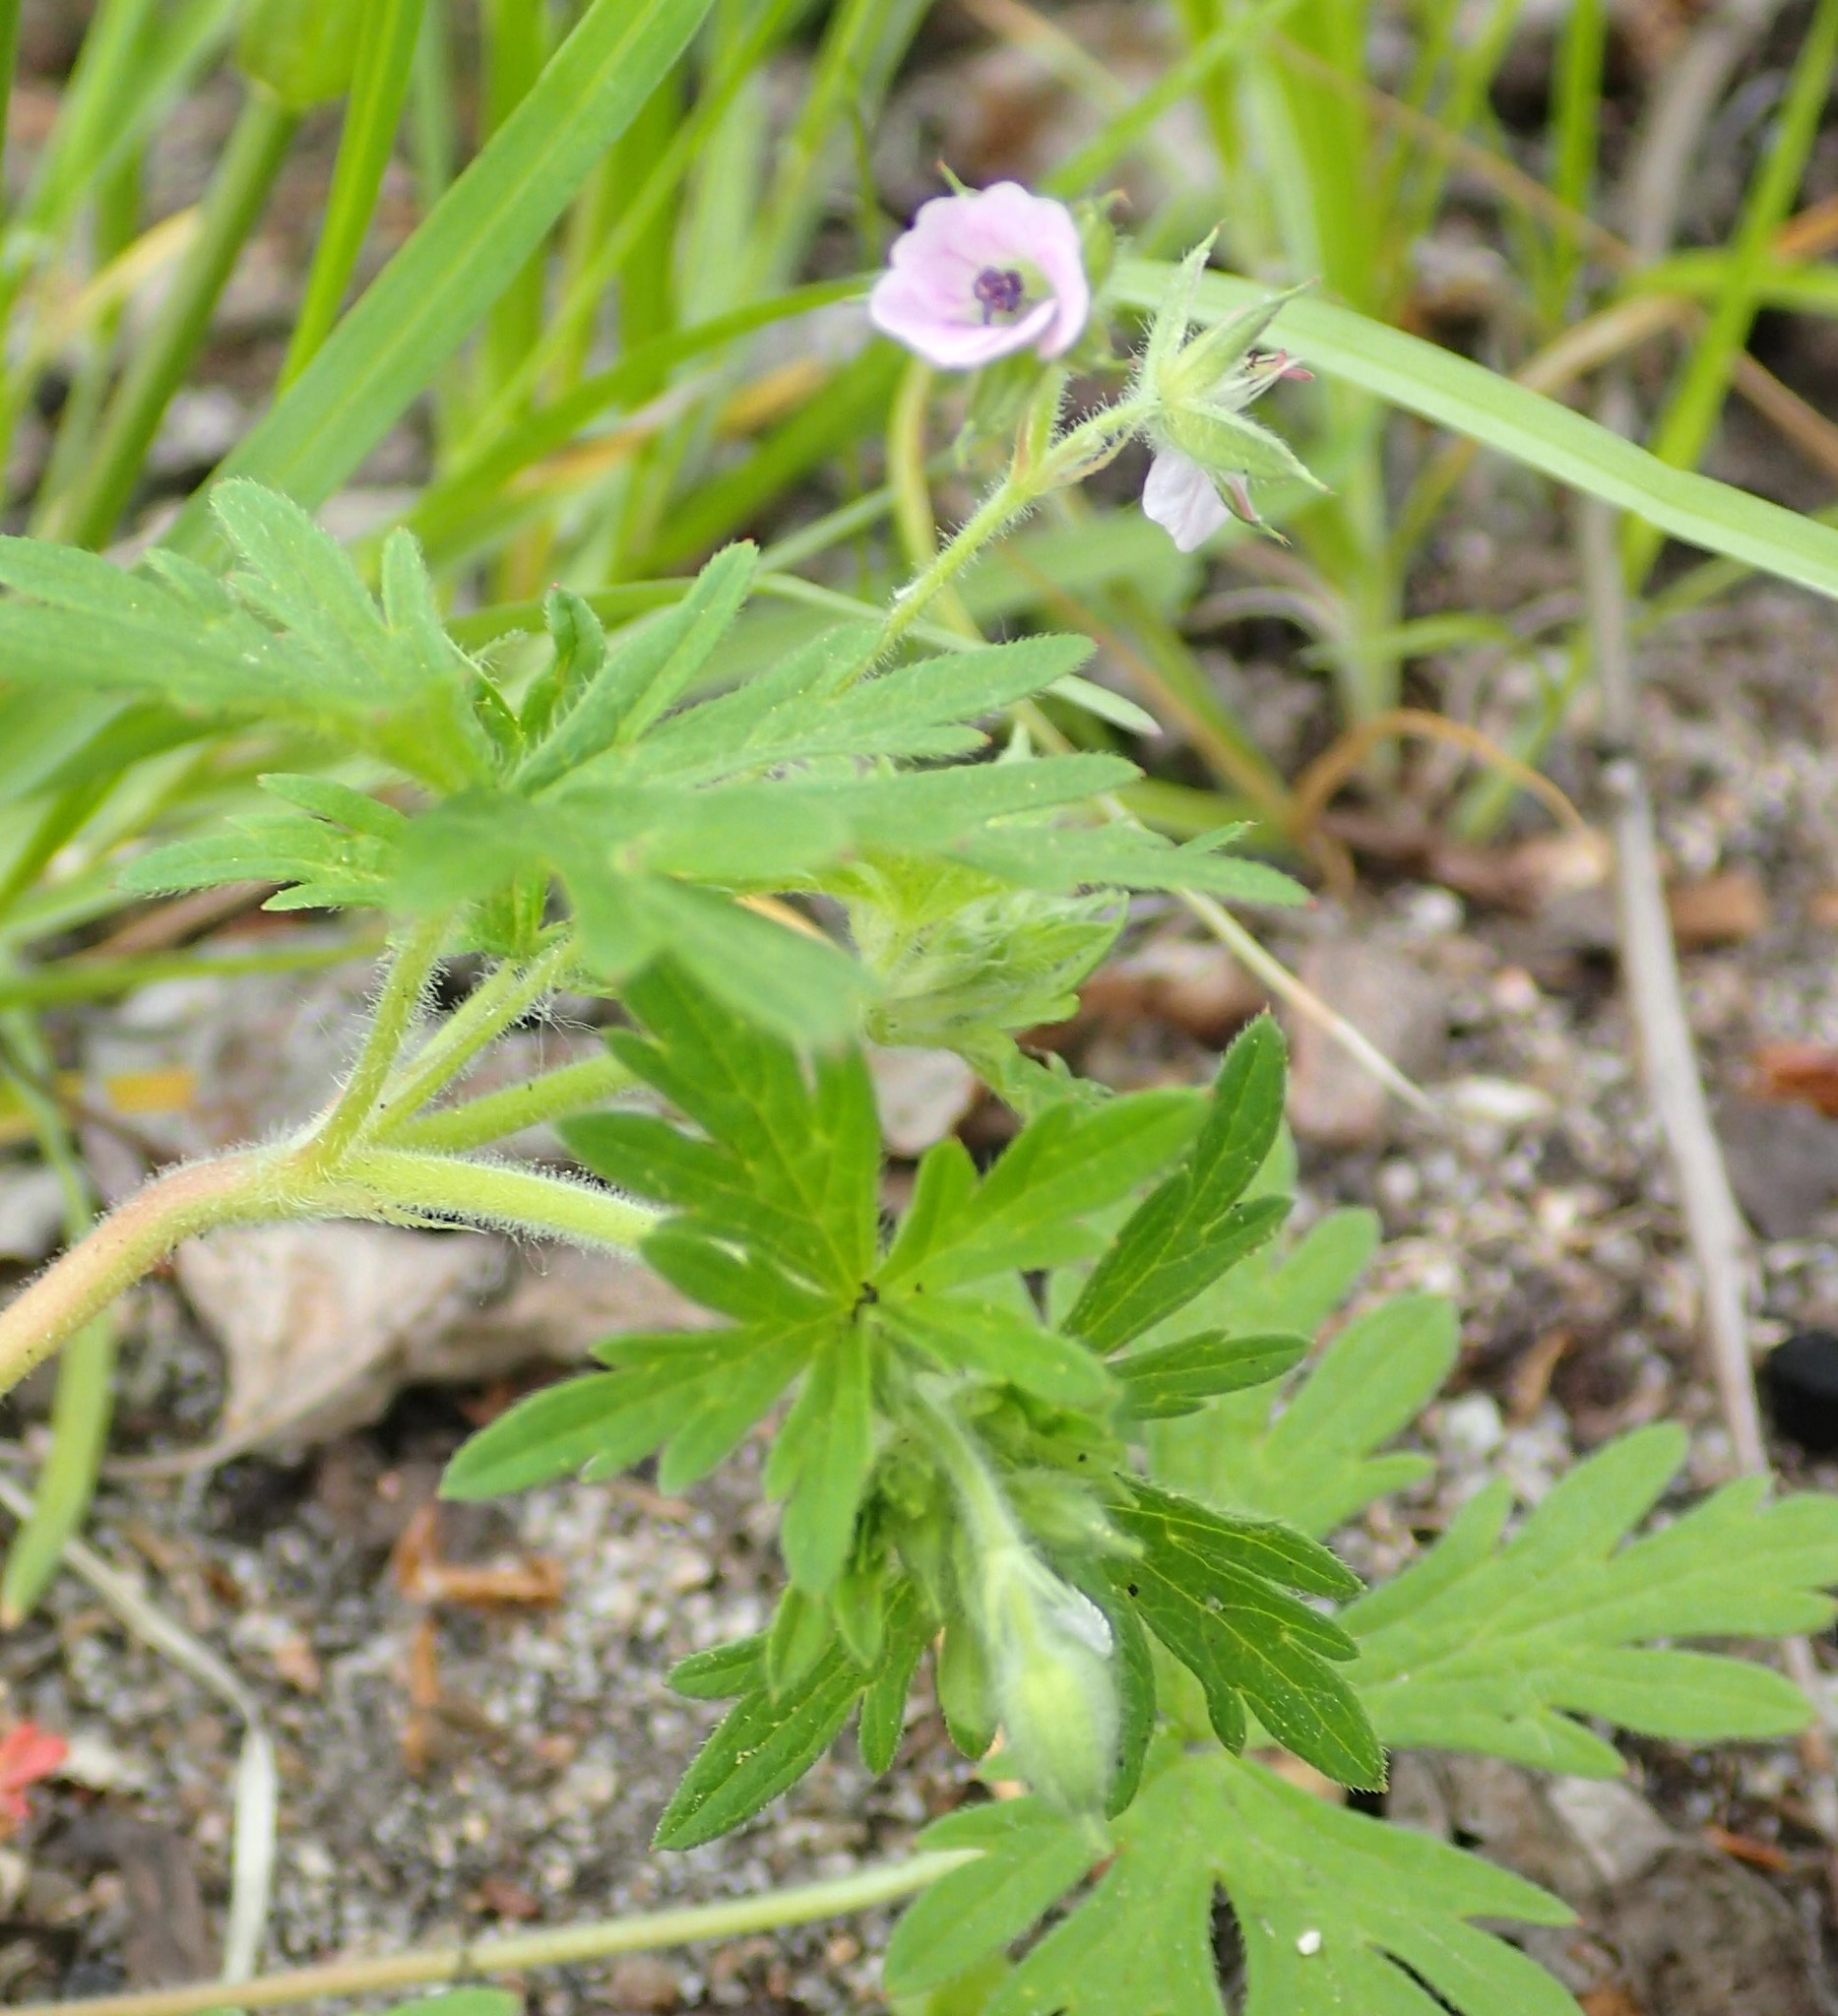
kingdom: Plantae
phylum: Tracheophyta
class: Magnoliopsida
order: Geraniales
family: Geraniaceae
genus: Geranium
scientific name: Geranium bicknellii
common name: Bicknell's cranesbill
